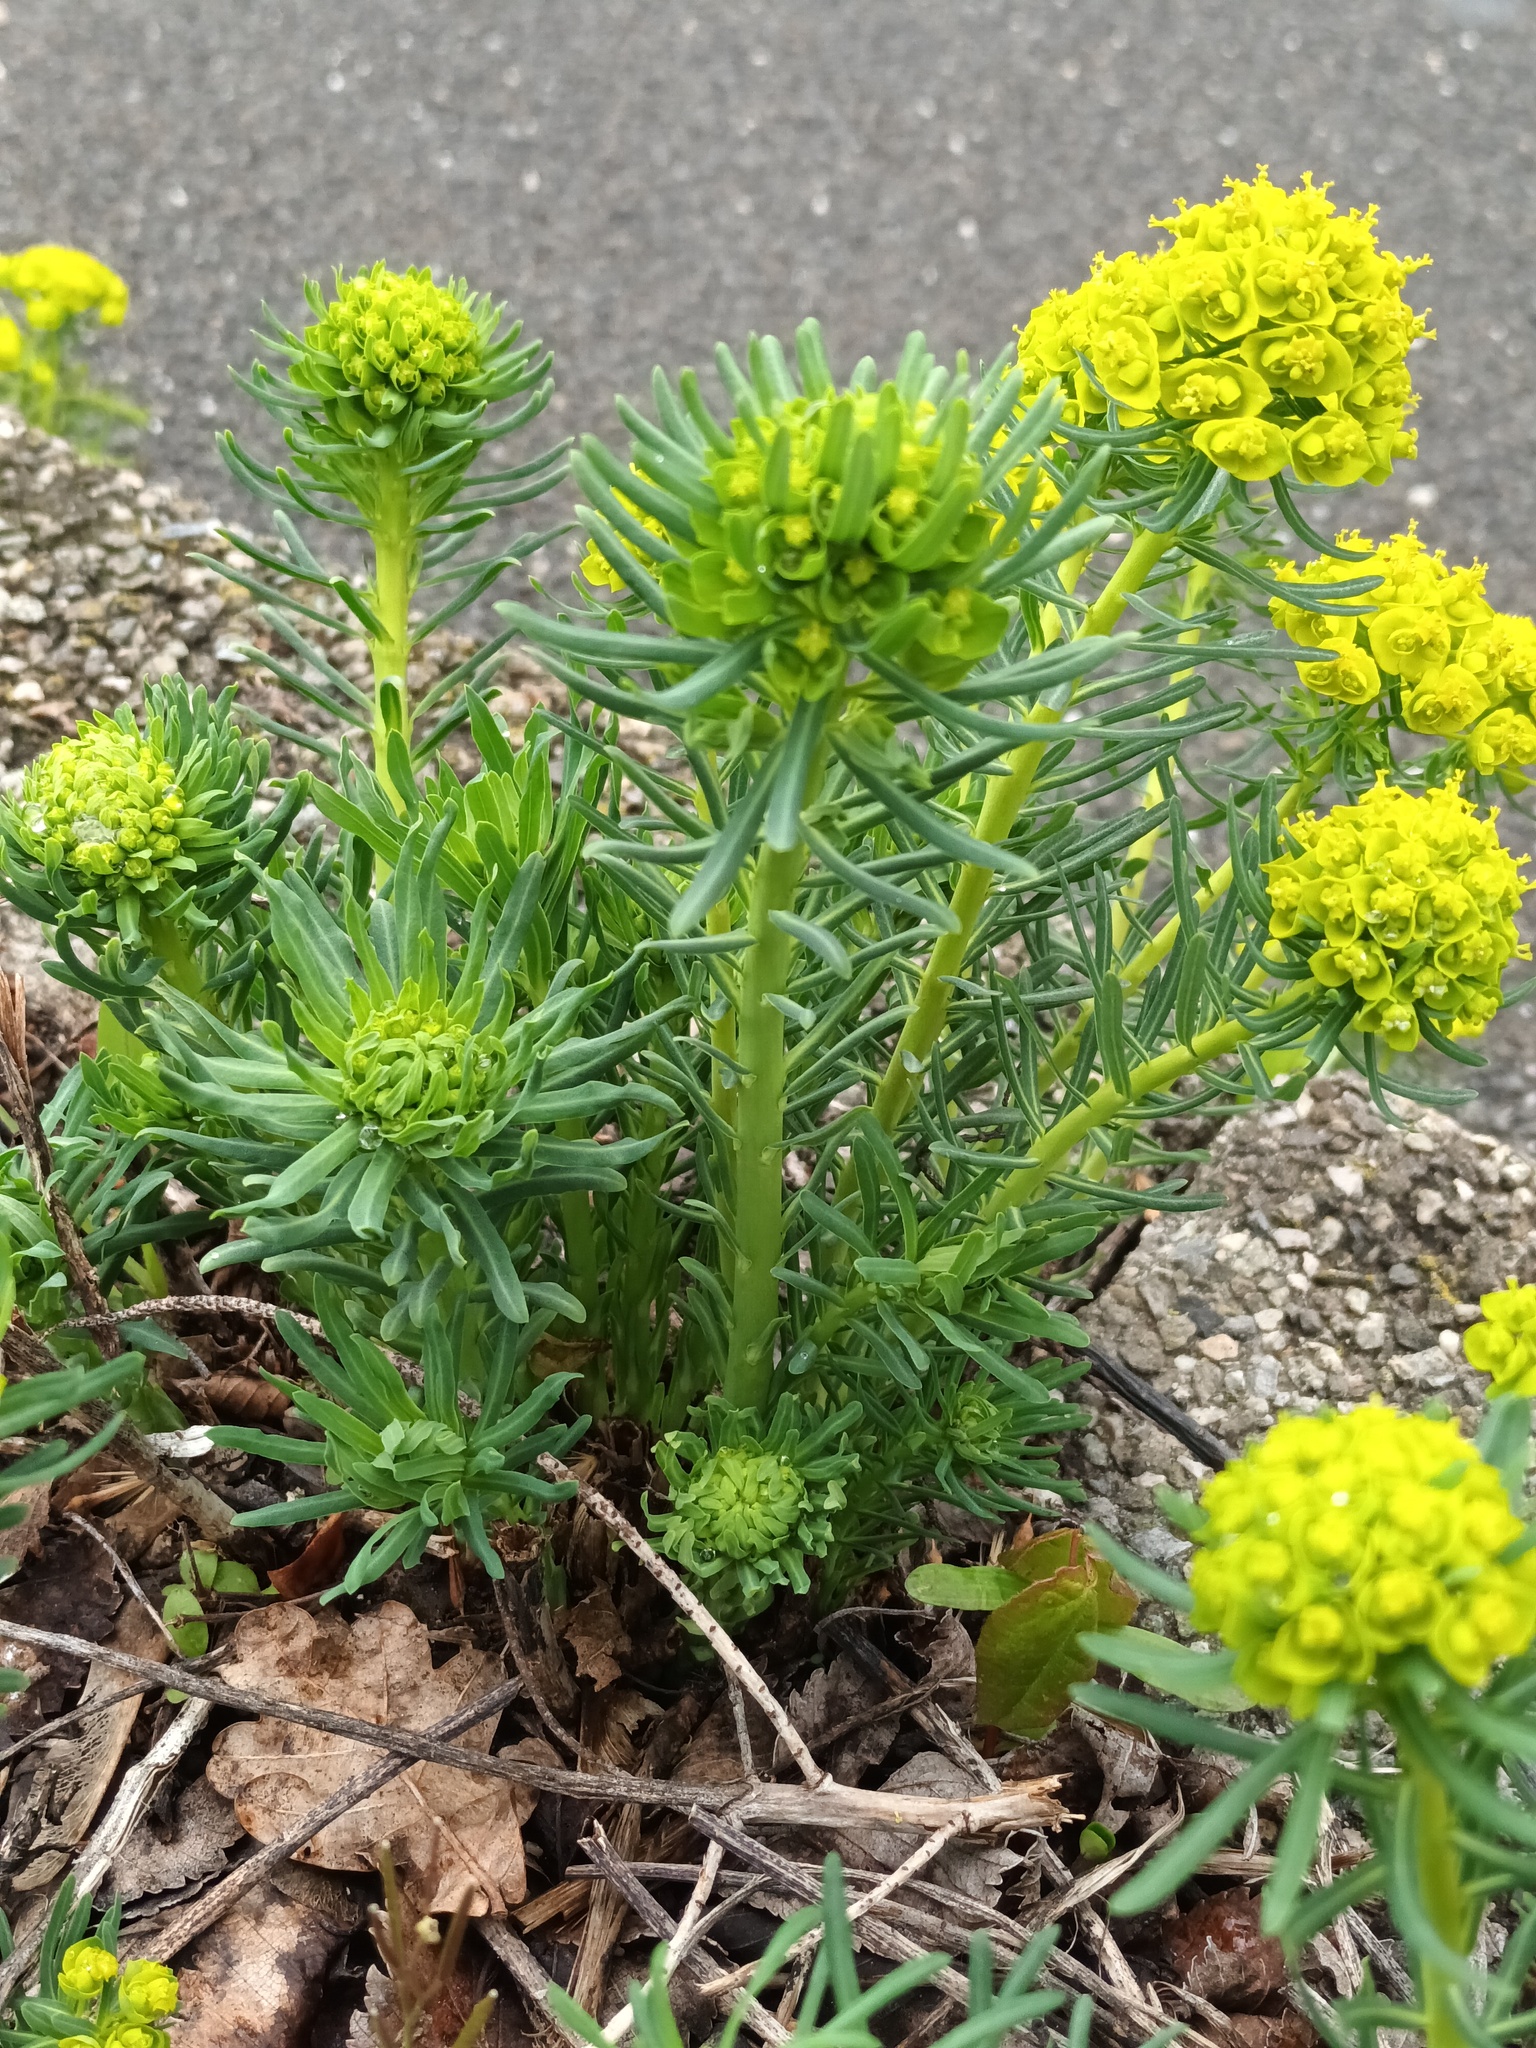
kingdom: Plantae
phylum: Tracheophyta
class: Magnoliopsida
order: Malpighiales
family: Euphorbiaceae
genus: Euphorbia
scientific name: Euphorbia cyparissias
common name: Cypress spurge
